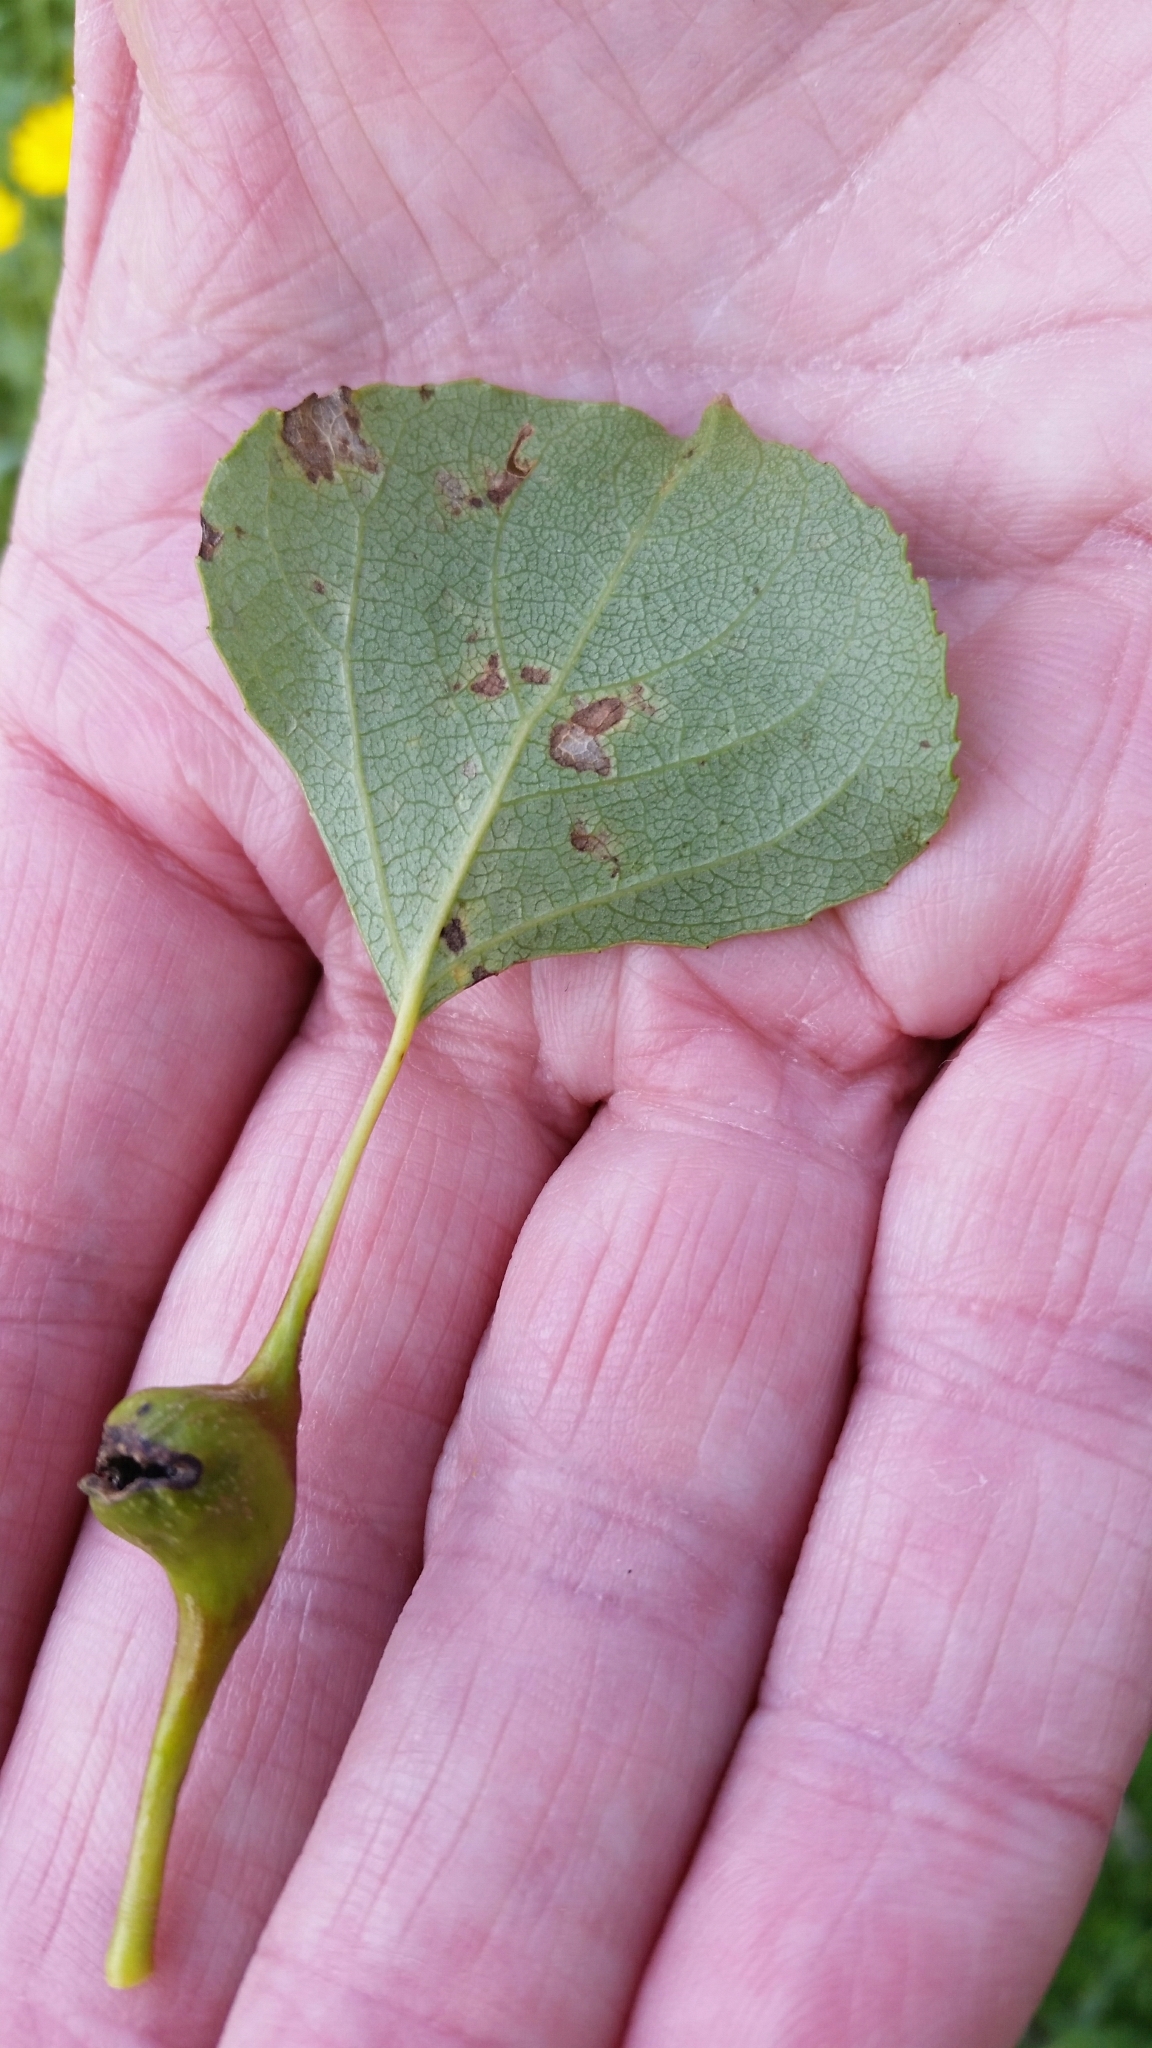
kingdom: Animalia
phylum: Arthropoda
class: Insecta
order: Hemiptera
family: Aphididae
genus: Pemphigus
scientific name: Pemphigus bursarius
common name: Lettuce aphid
